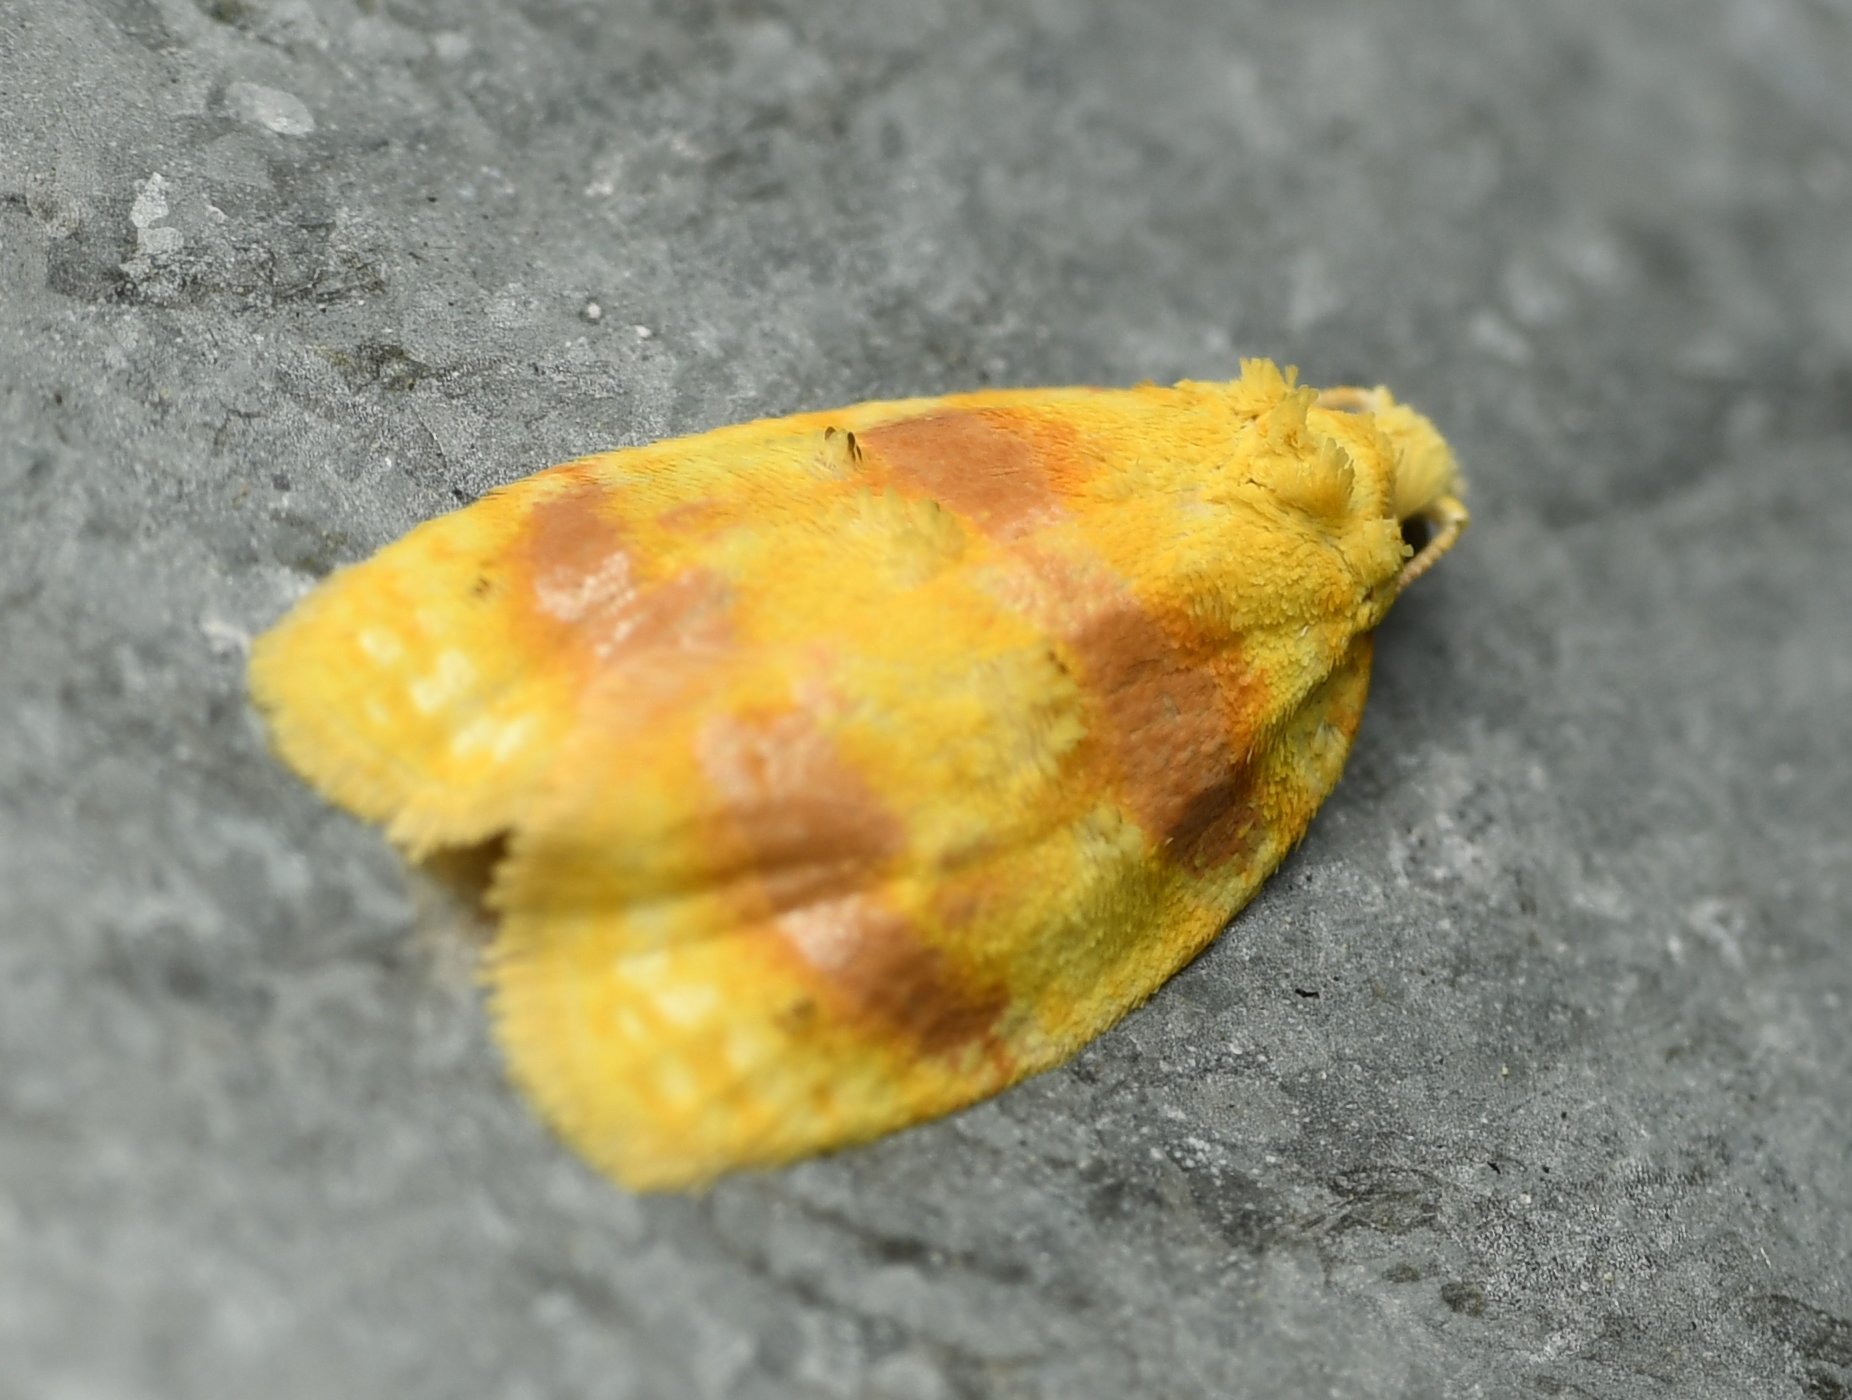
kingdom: Animalia
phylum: Arthropoda
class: Insecta
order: Lepidoptera
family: Tortricidae
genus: Acleris
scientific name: Acleris semipurpurana
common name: Oak leaftier moth
